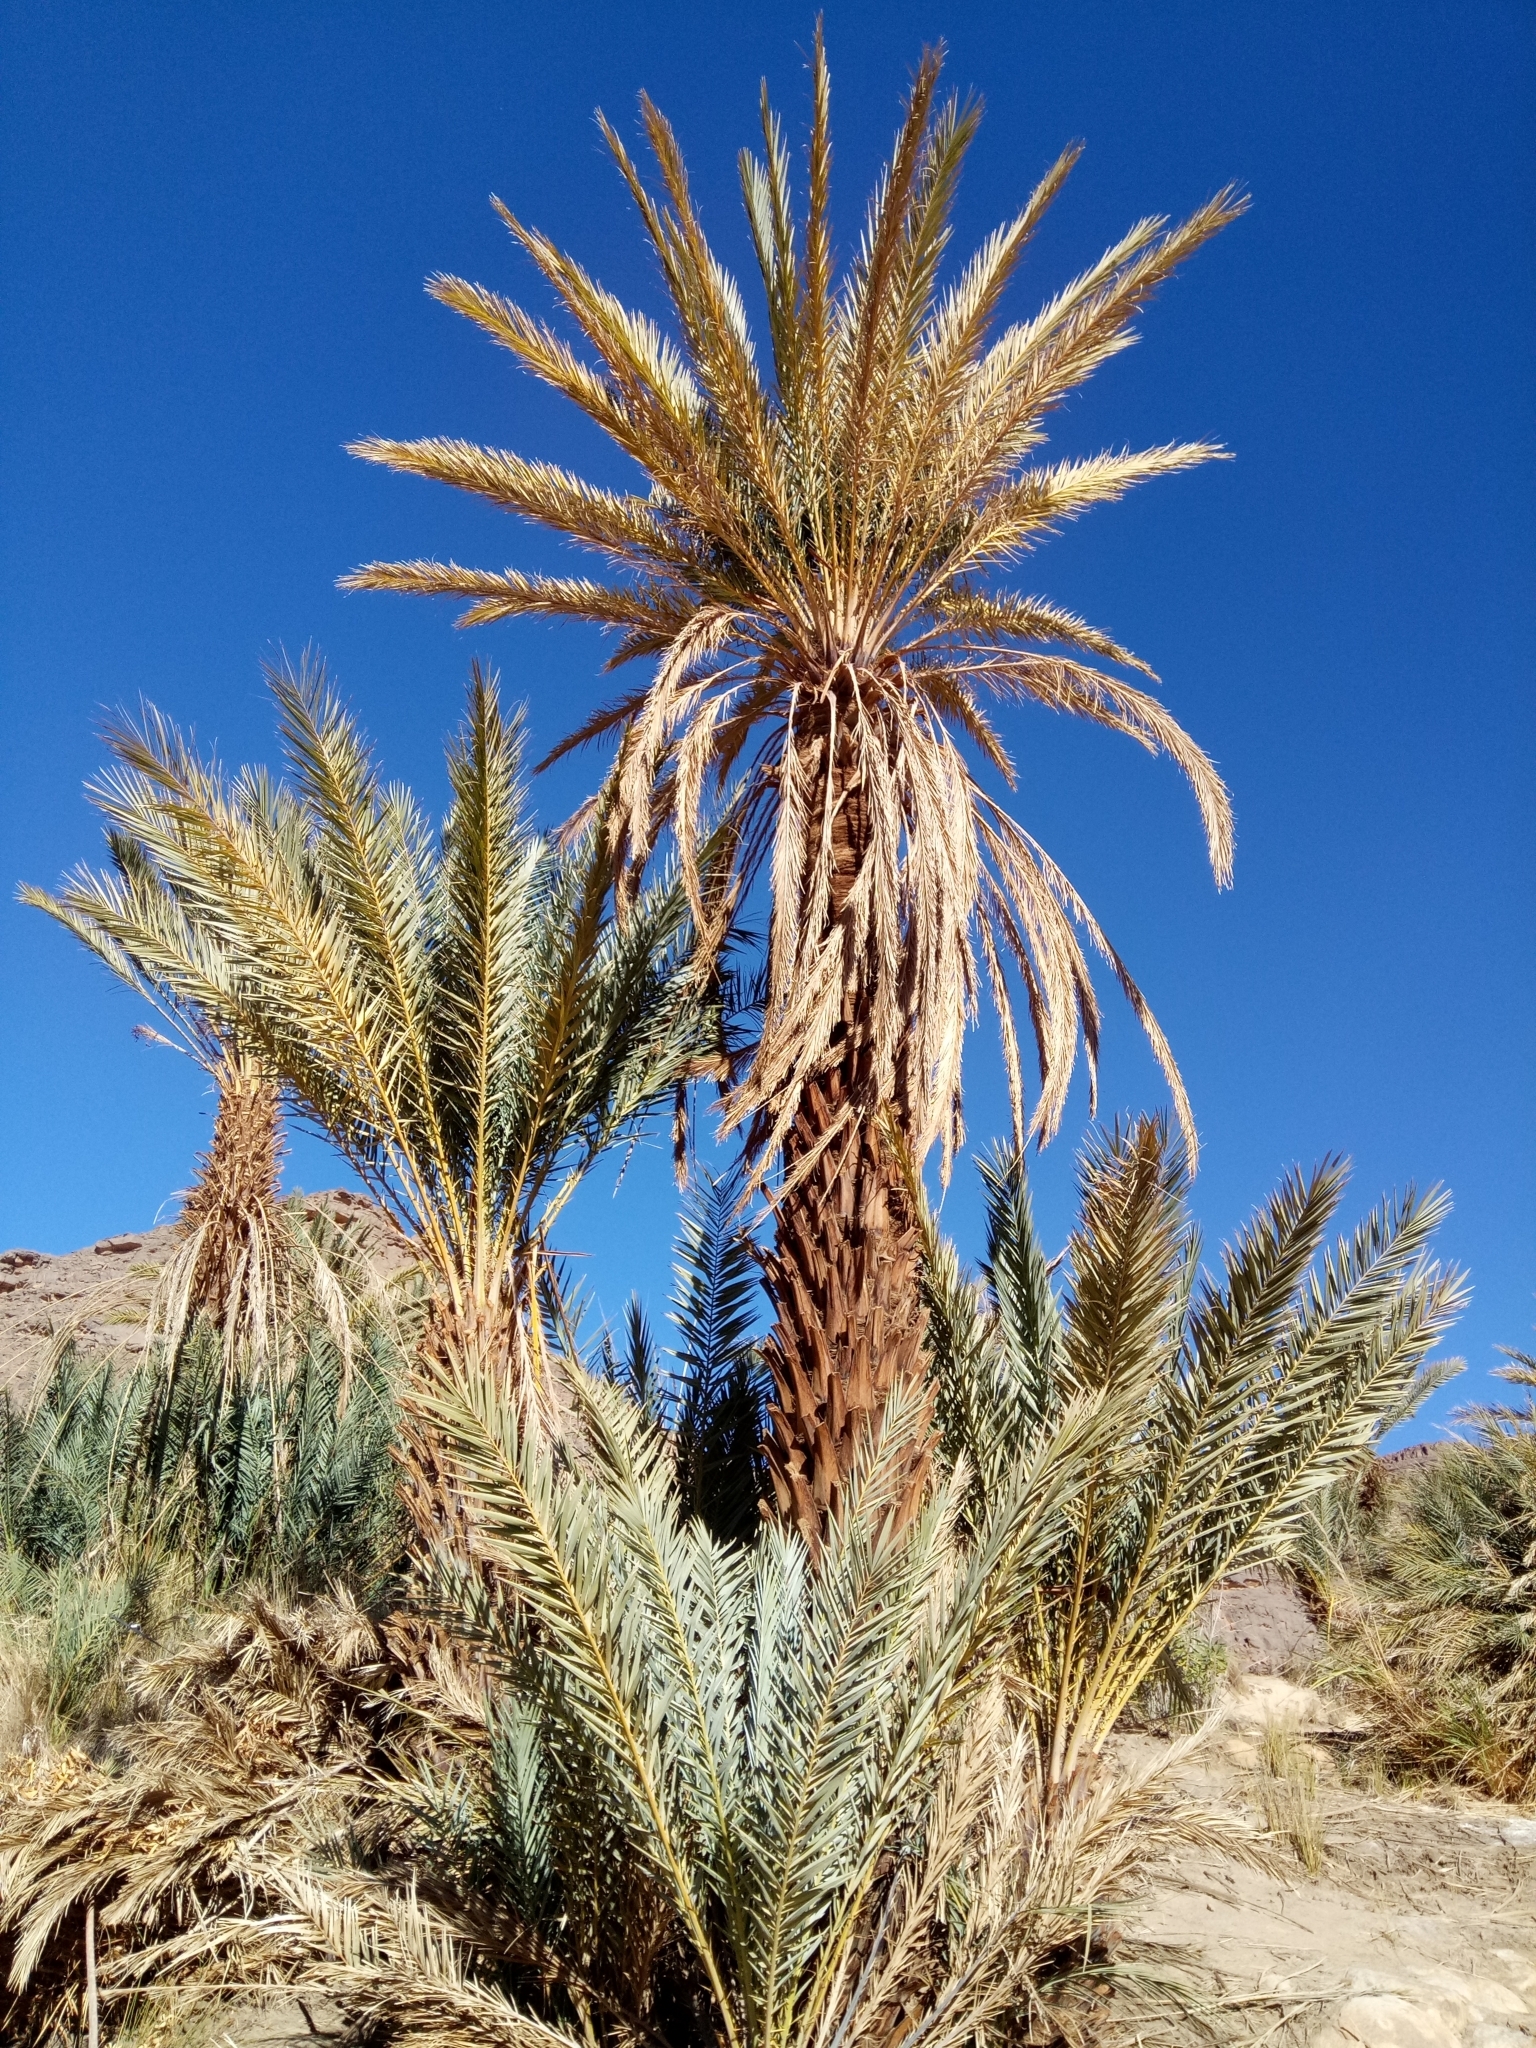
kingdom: Plantae
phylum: Tracheophyta
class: Liliopsida
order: Arecales
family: Arecaceae
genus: Phoenix
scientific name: Phoenix dactylifera
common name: Date palm
